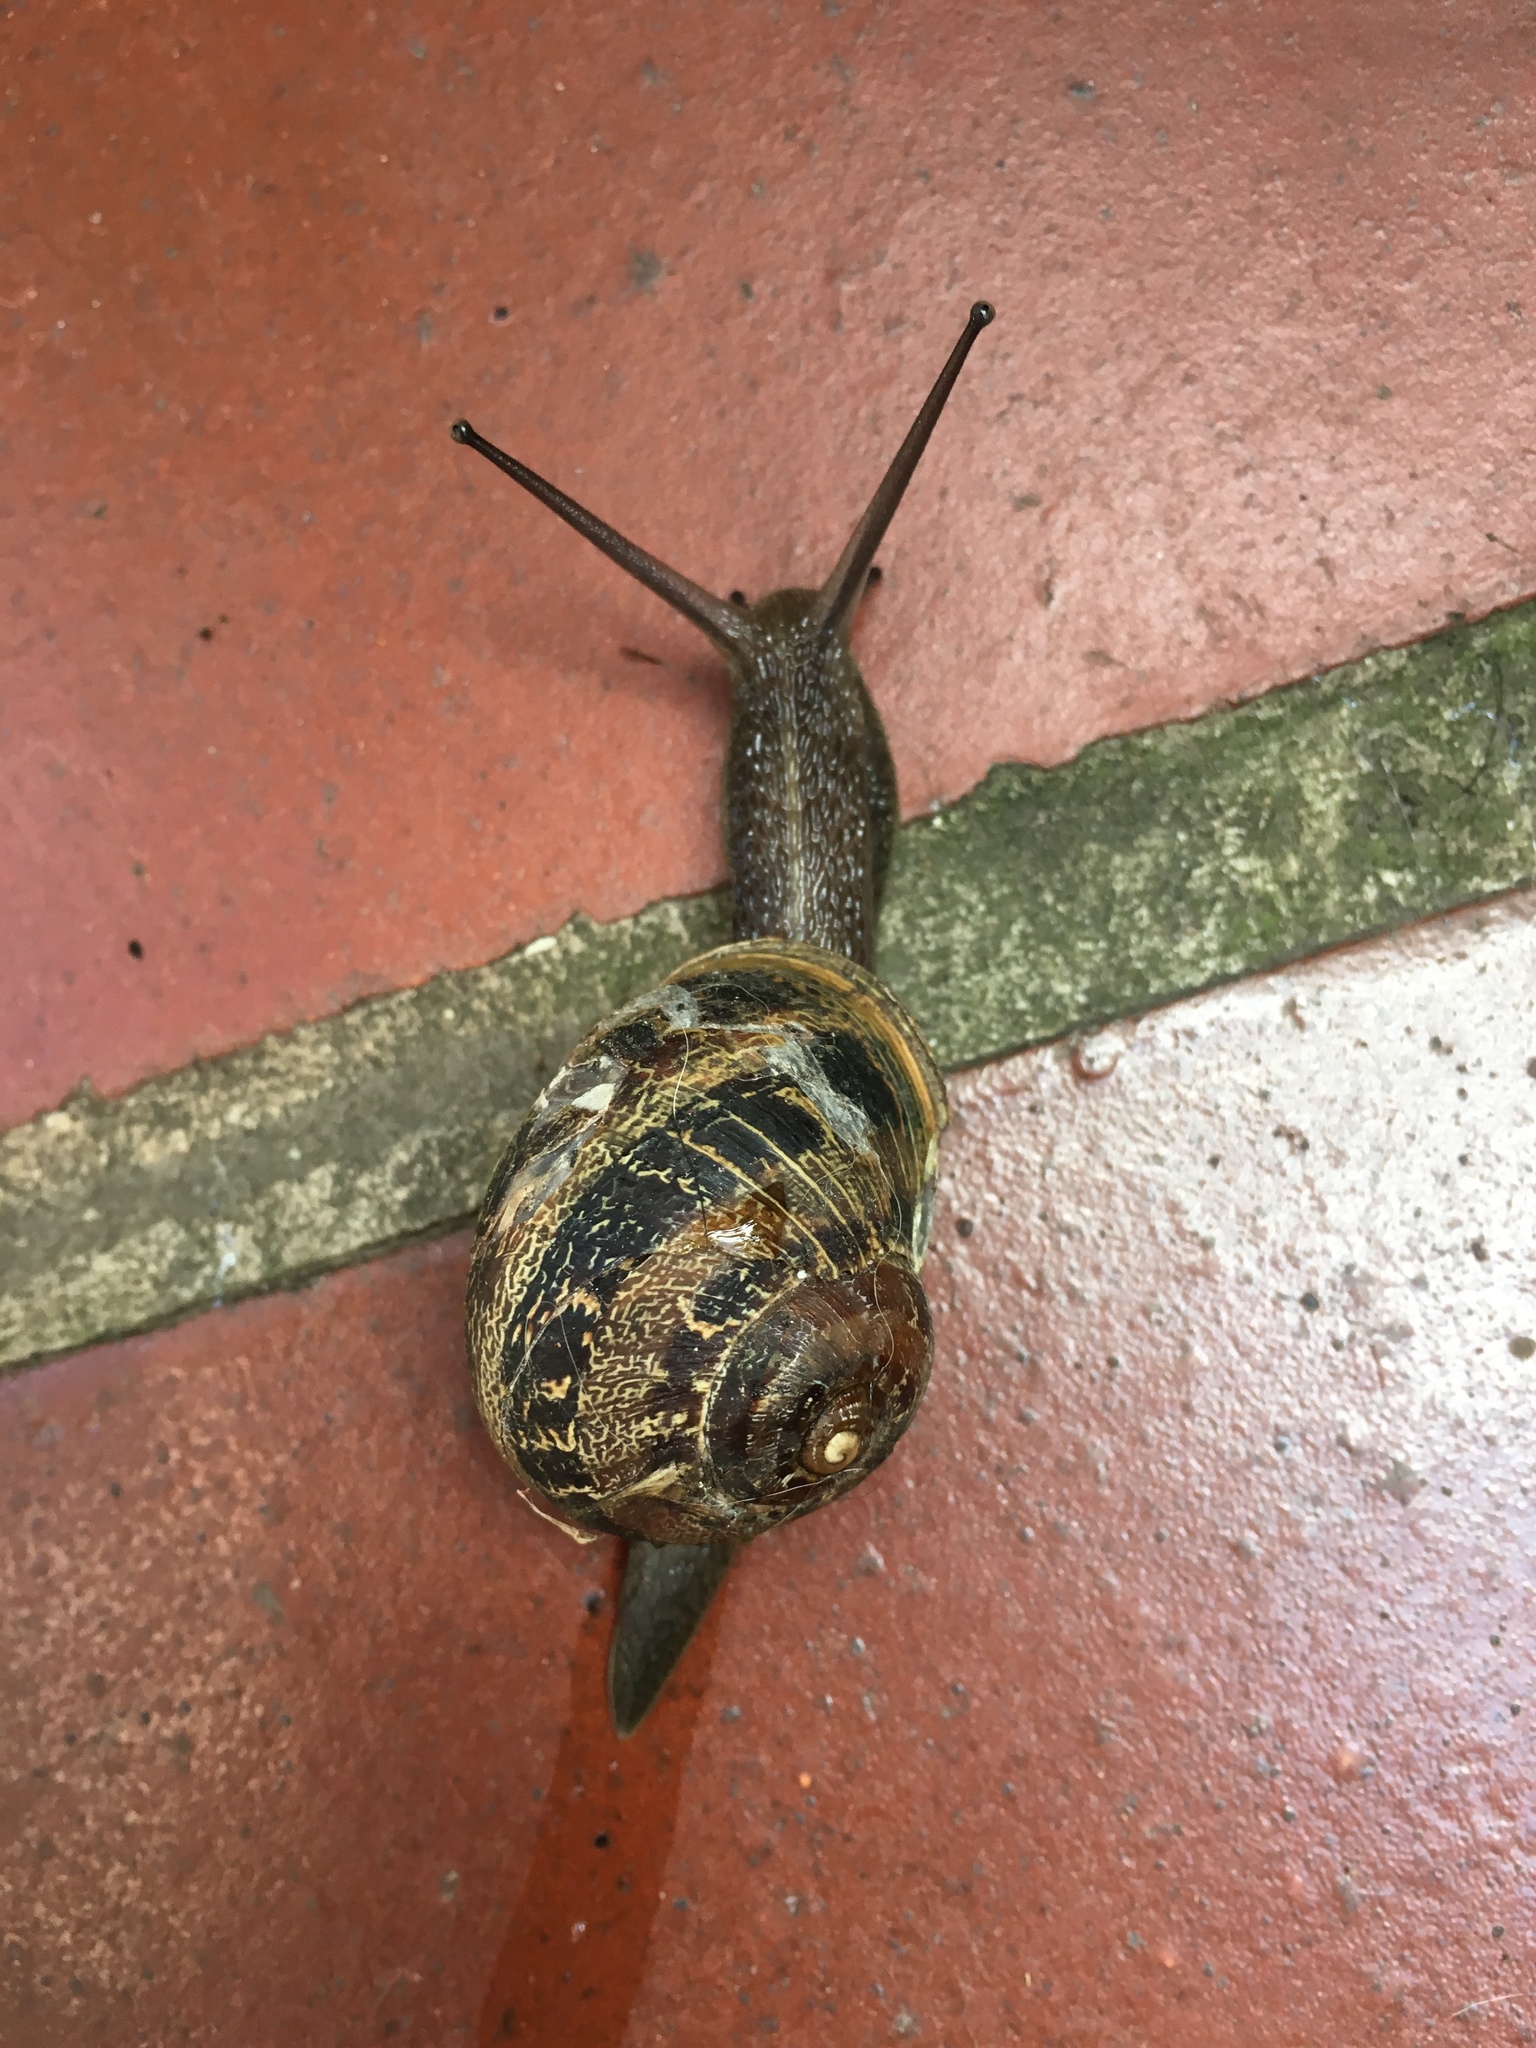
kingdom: Animalia
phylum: Mollusca
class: Gastropoda
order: Stylommatophora
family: Helicidae
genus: Cornu
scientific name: Cornu aspersum
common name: Brown garden snail
